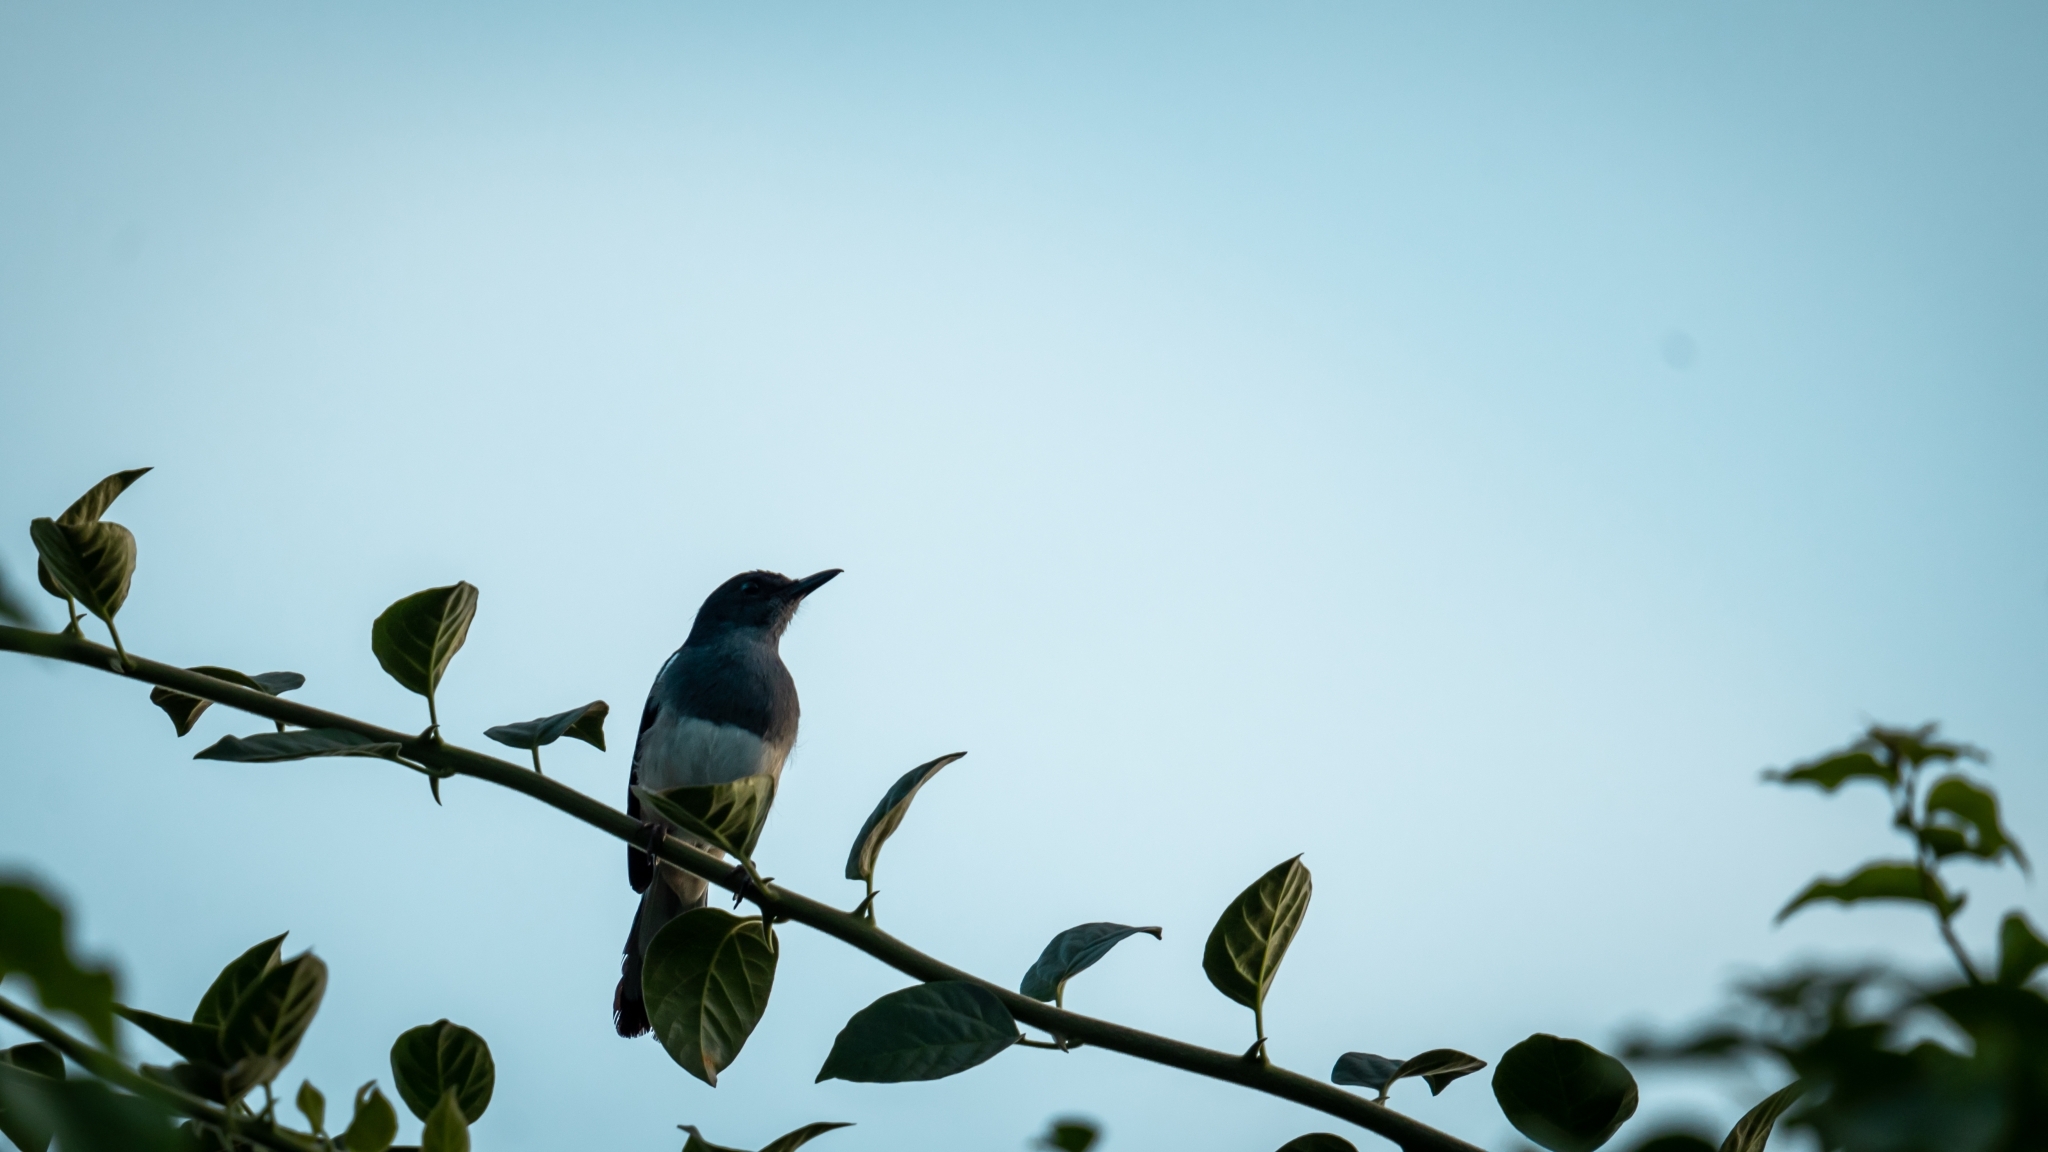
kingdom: Animalia
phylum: Chordata
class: Aves
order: Passeriformes
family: Muscicapidae
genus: Copsychus
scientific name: Copsychus saularis
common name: Oriental magpie-robin
